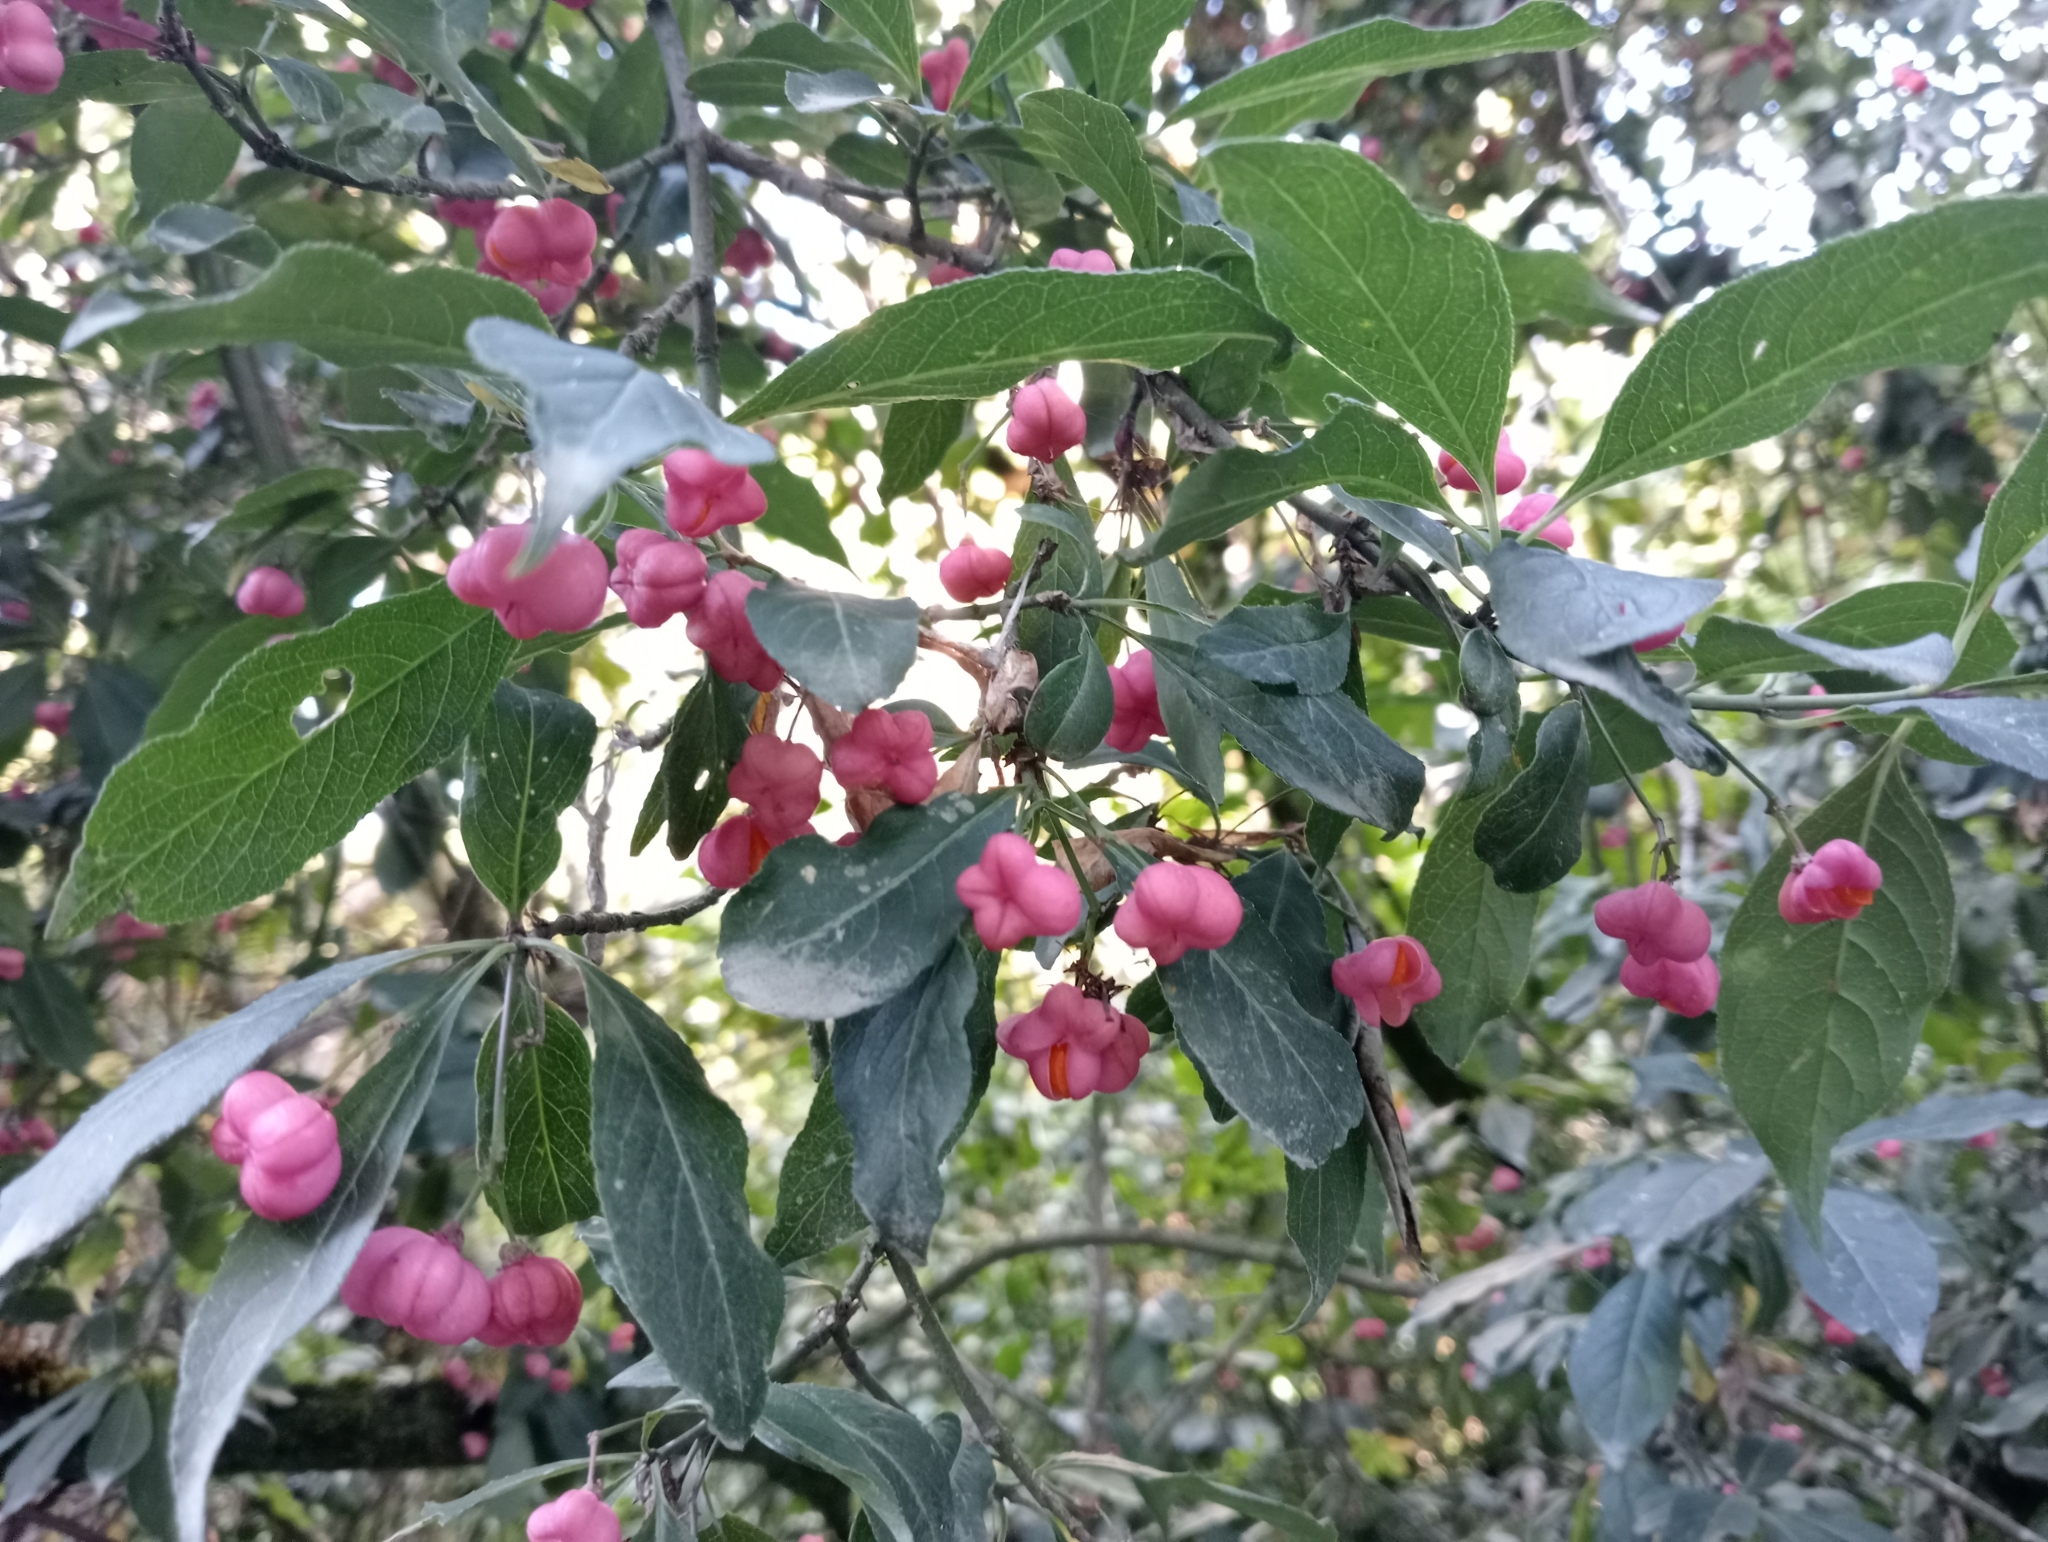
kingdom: Plantae
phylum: Tracheophyta
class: Magnoliopsida
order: Celastrales
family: Celastraceae
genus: Euonymus
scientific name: Euonymus europaeus
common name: Spindle
